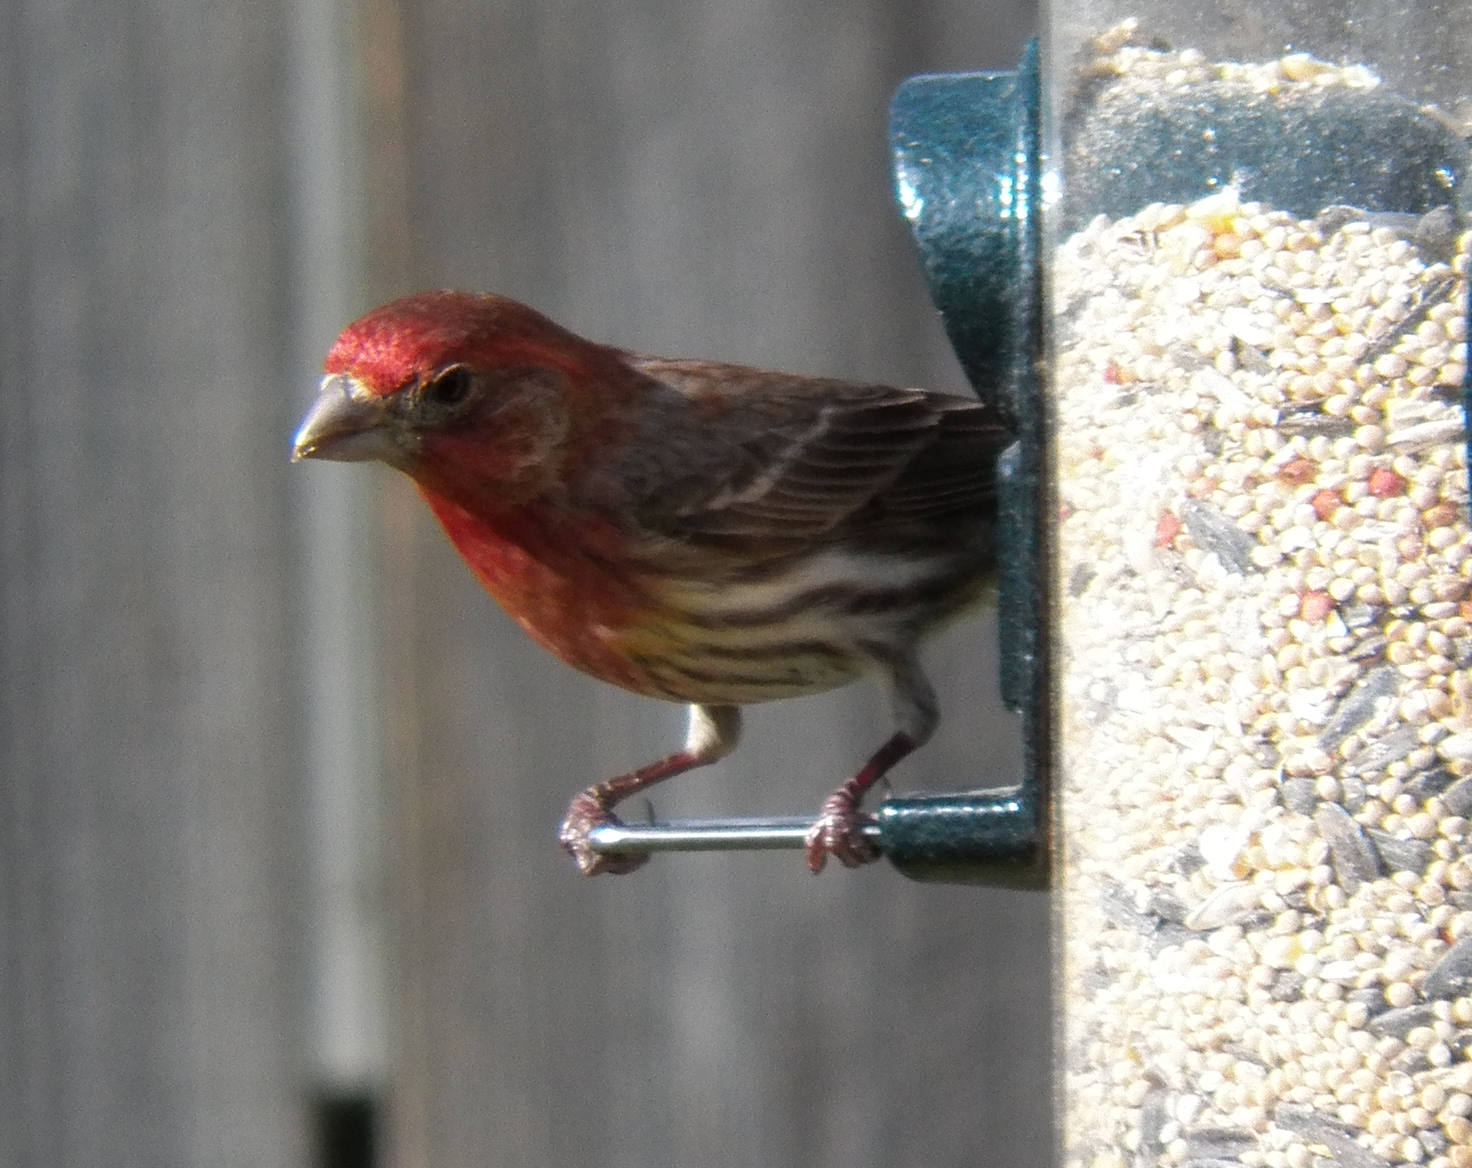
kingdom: Animalia
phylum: Chordata
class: Aves
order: Passeriformes
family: Fringillidae
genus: Haemorhous
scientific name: Haemorhous mexicanus
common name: House finch
